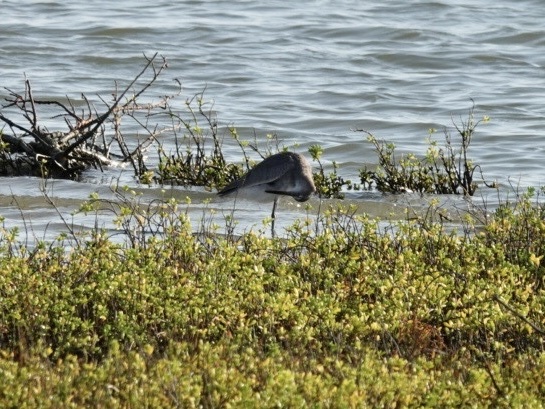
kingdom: Animalia
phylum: Chordata
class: Aves
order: Charadriiformes
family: Scolopacidae
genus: Tringa
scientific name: Tringa semipalmata
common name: Willet
